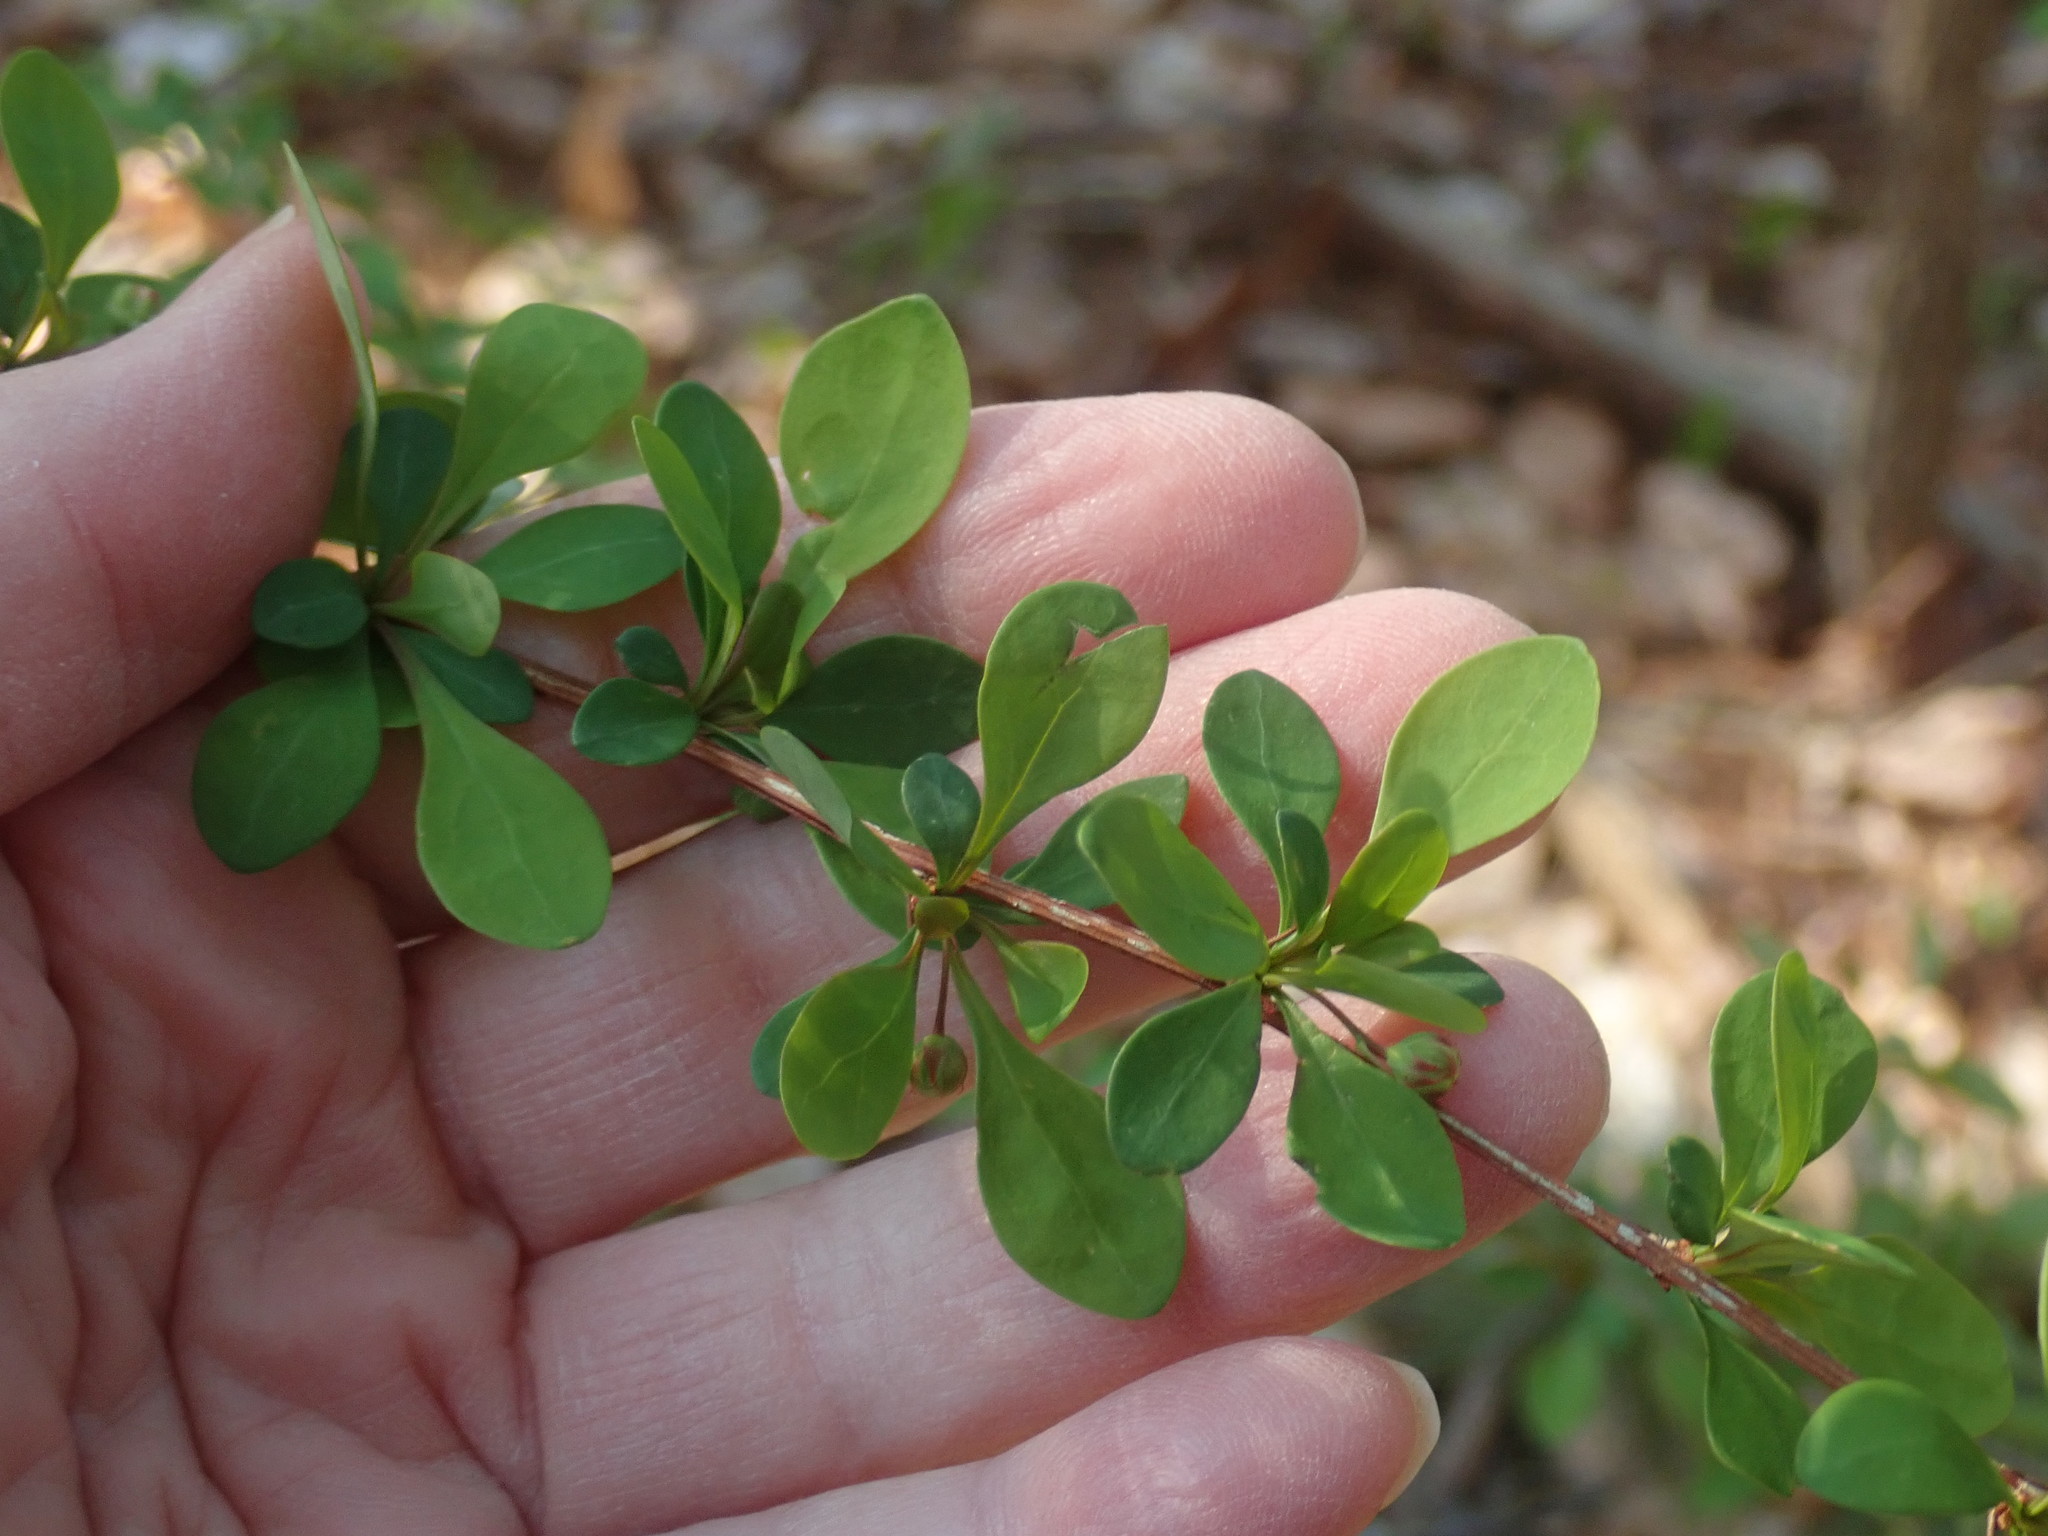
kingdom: Plantae
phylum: Tracheophyta
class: Magnoliopsida
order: Ranunculales
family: Berberidaceae
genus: Berberis
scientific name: Berberis thunbergii
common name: Japanese barberry
